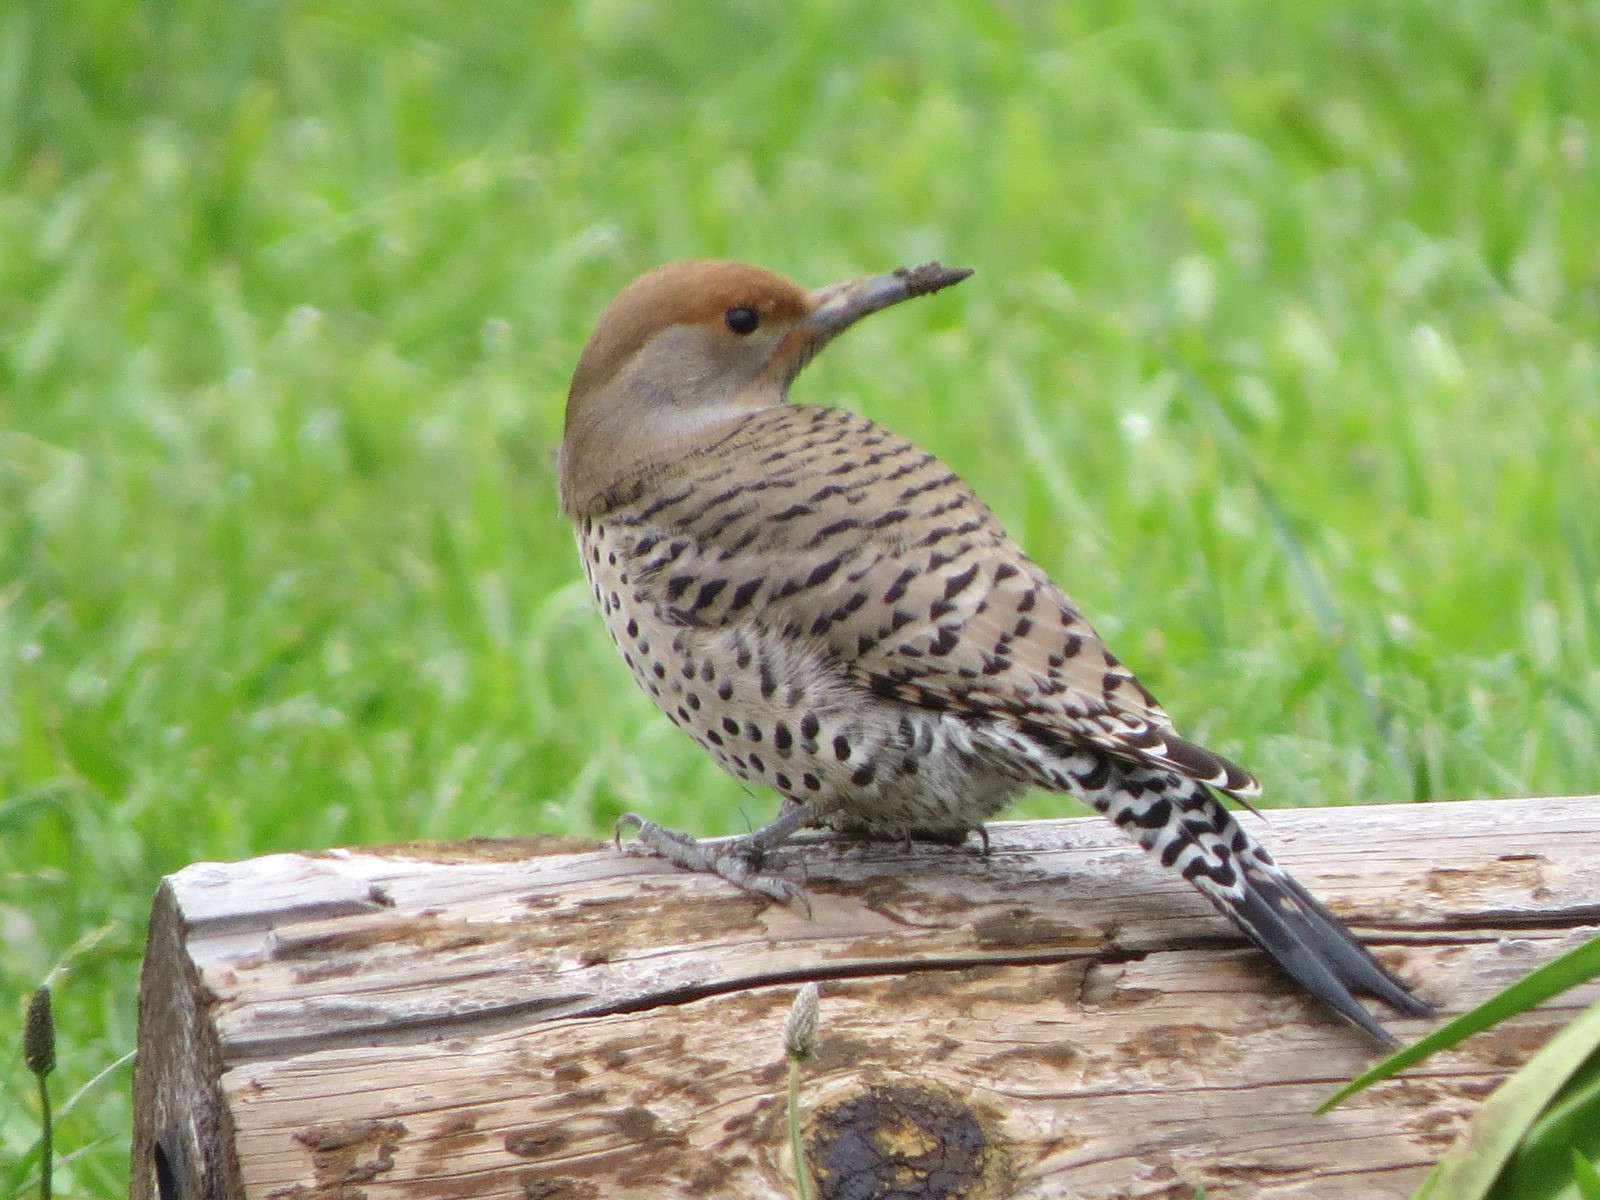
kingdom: Animalia
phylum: Chordata
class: Aves
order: Piciformes
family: Picidae
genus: Colaptes
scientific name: Colaptes auratus
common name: Northern flicker
